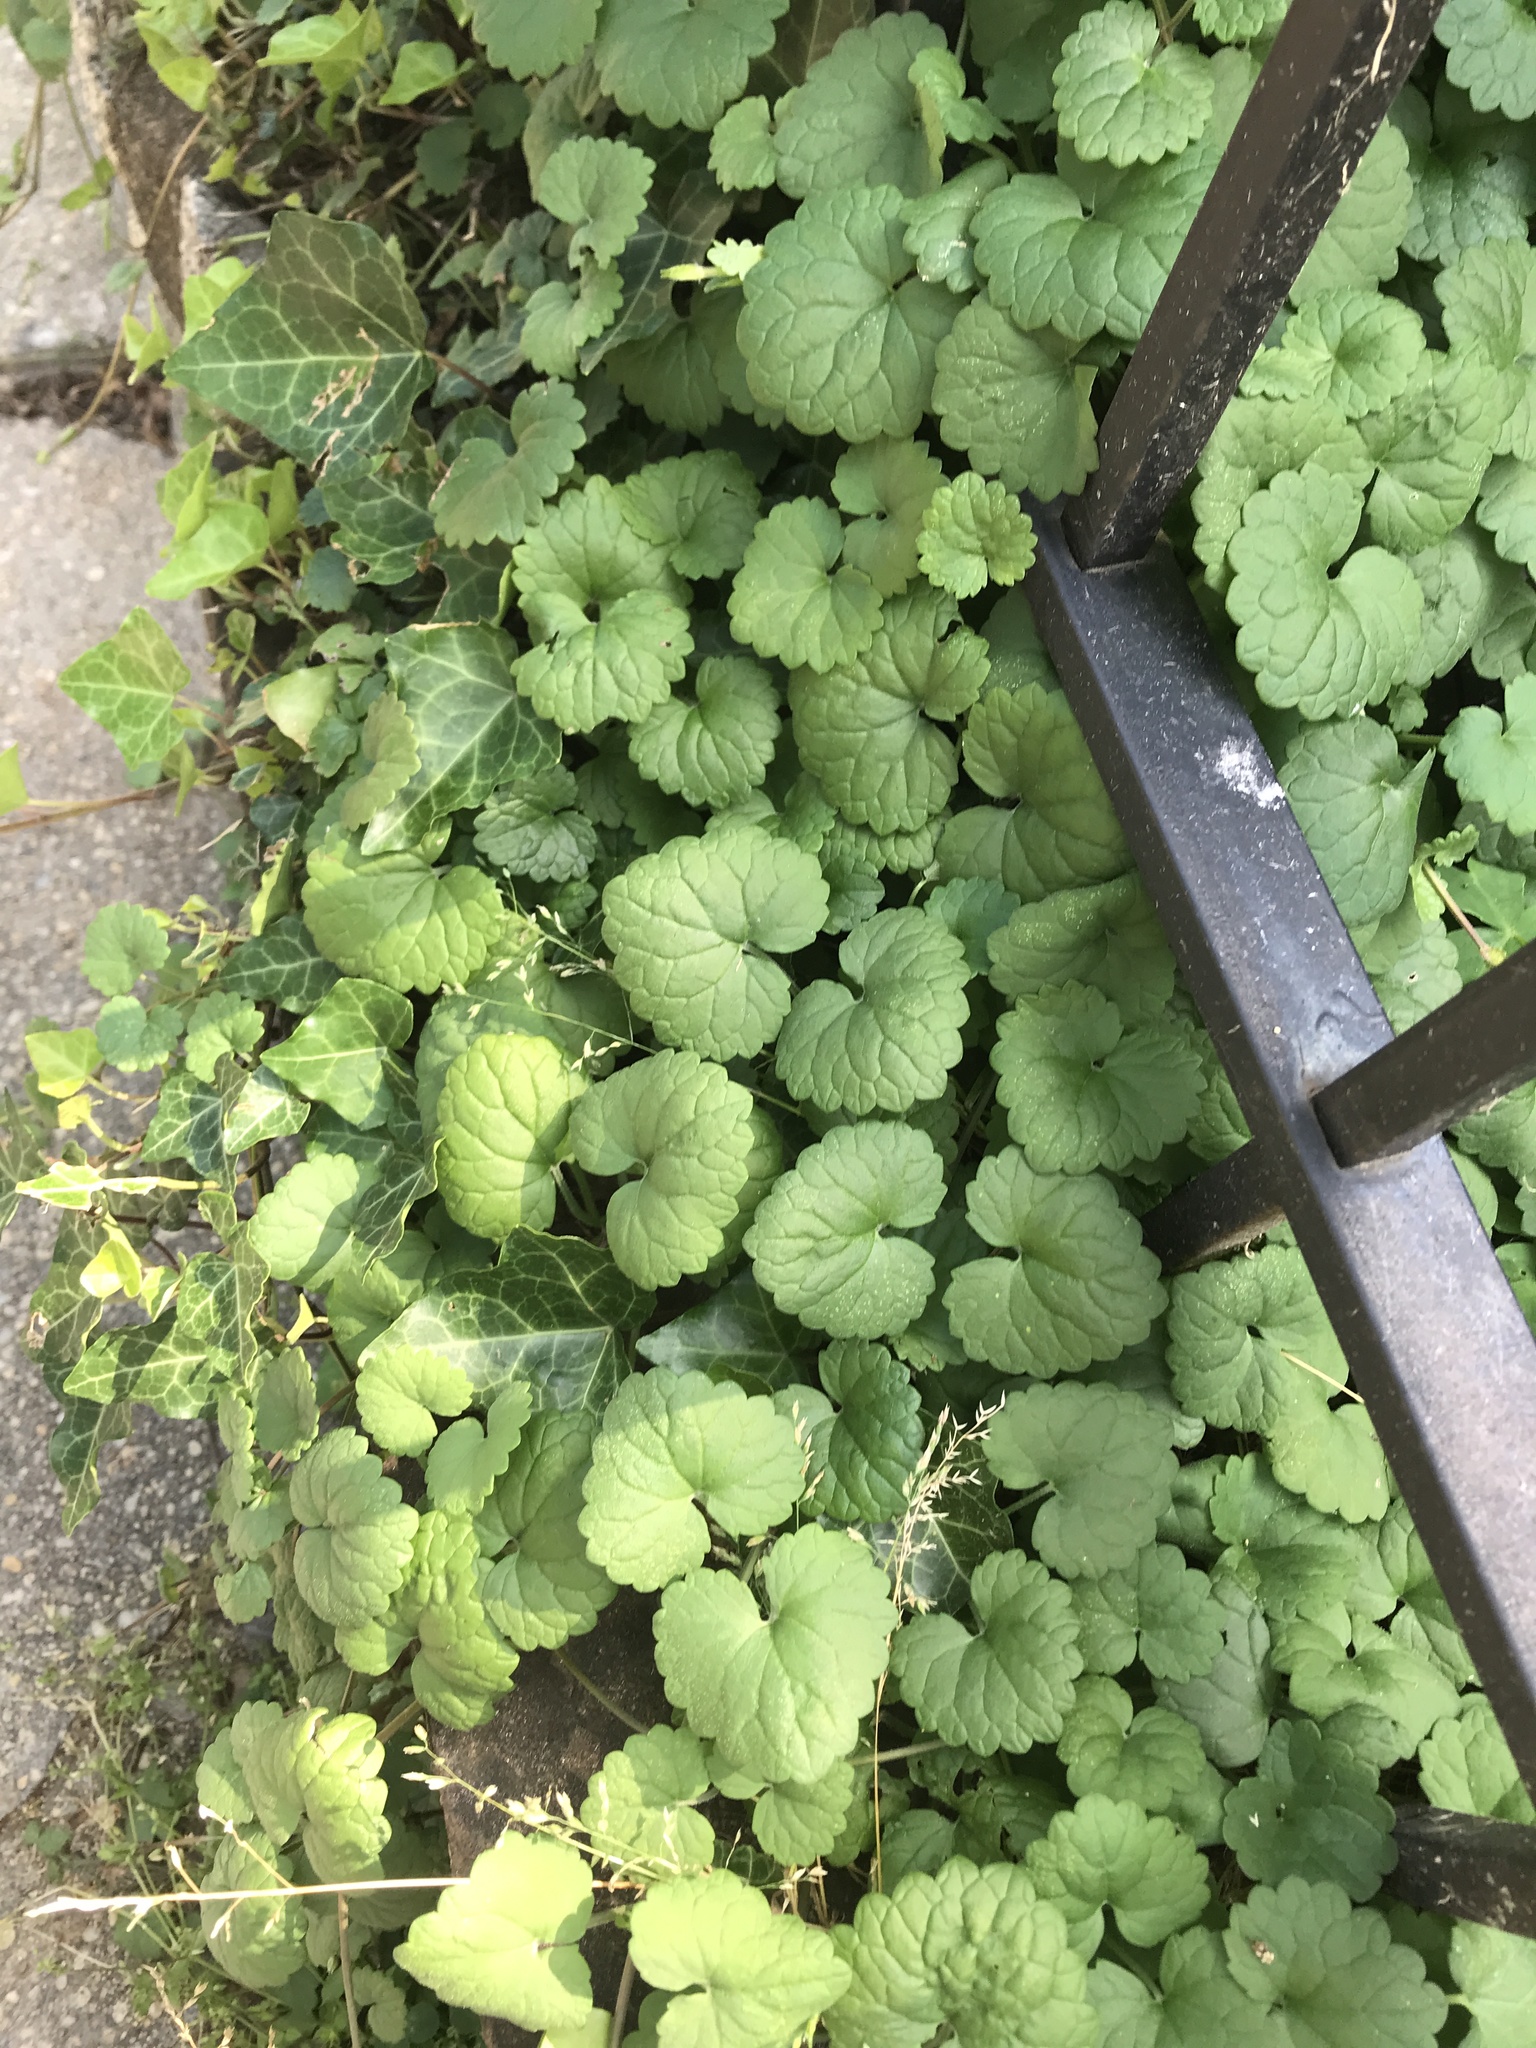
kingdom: Plantae
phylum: Tracheophyta
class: Magnoliopsida
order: Lamiales
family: Lamiaceae
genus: Glechoma
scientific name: Glechoma hederacea
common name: Ground ivy
